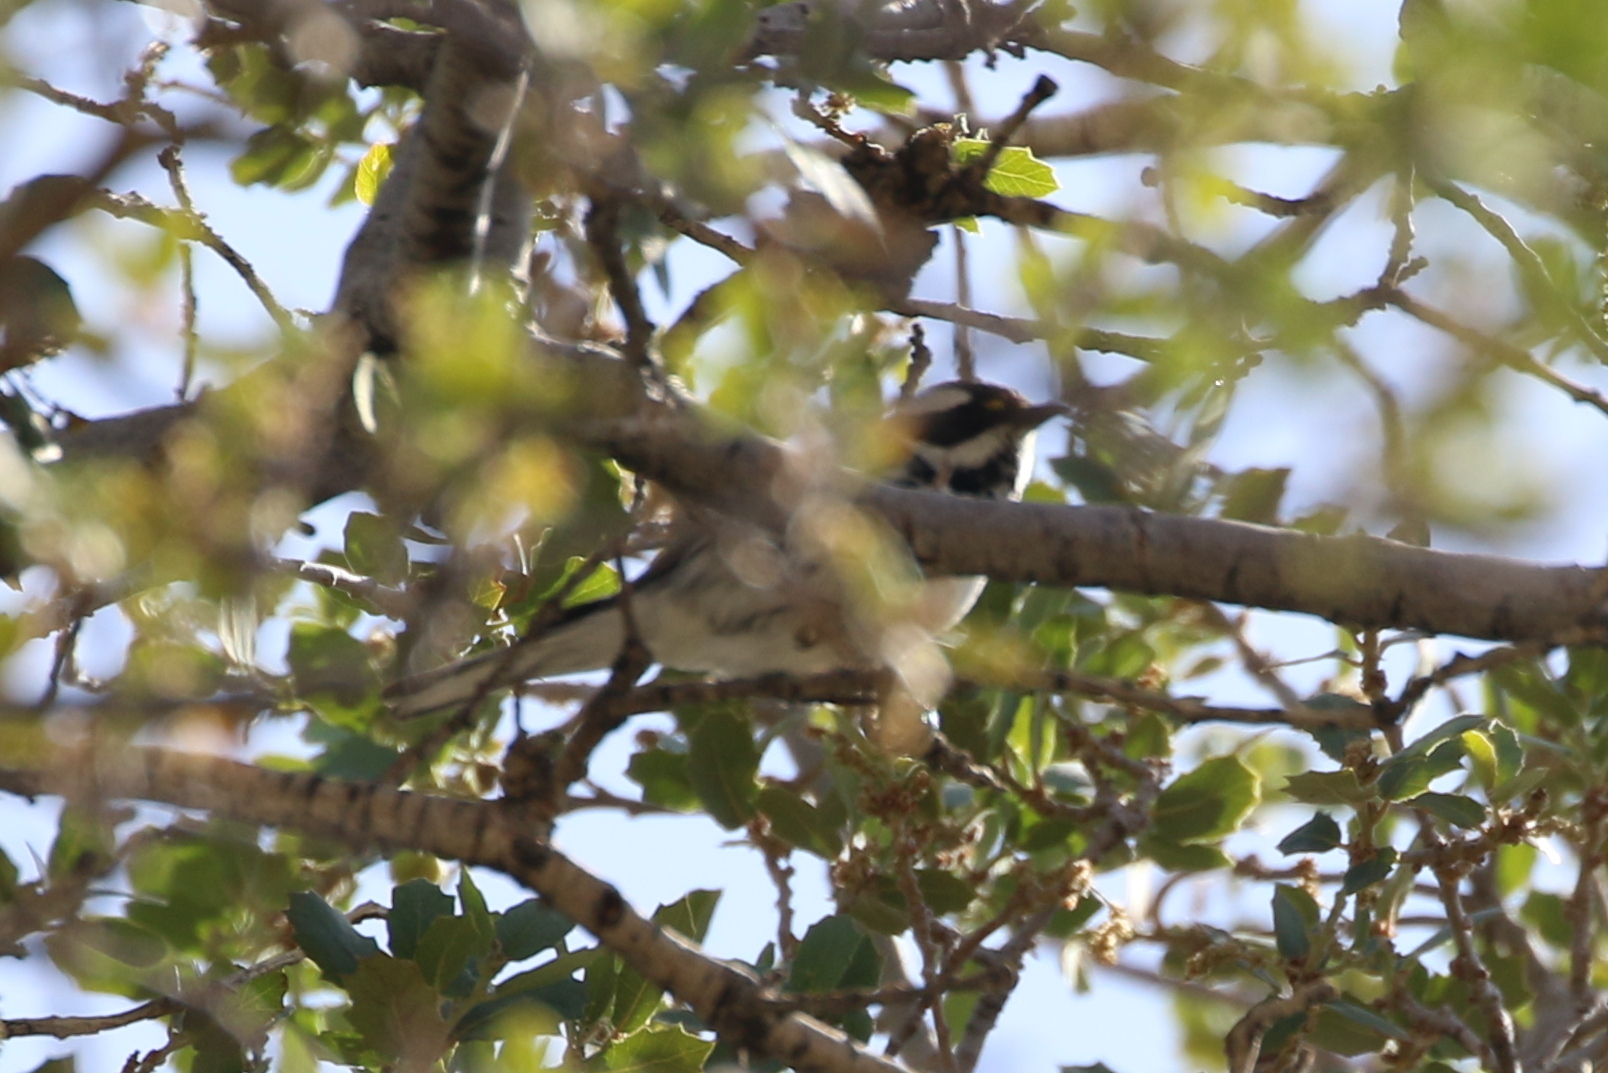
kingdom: Animalia
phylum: Chordata
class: Aves
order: Passeriformes
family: Parulidae
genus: Setophaga
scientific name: Setophaga nigrescens
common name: Black-throated gray warbler
